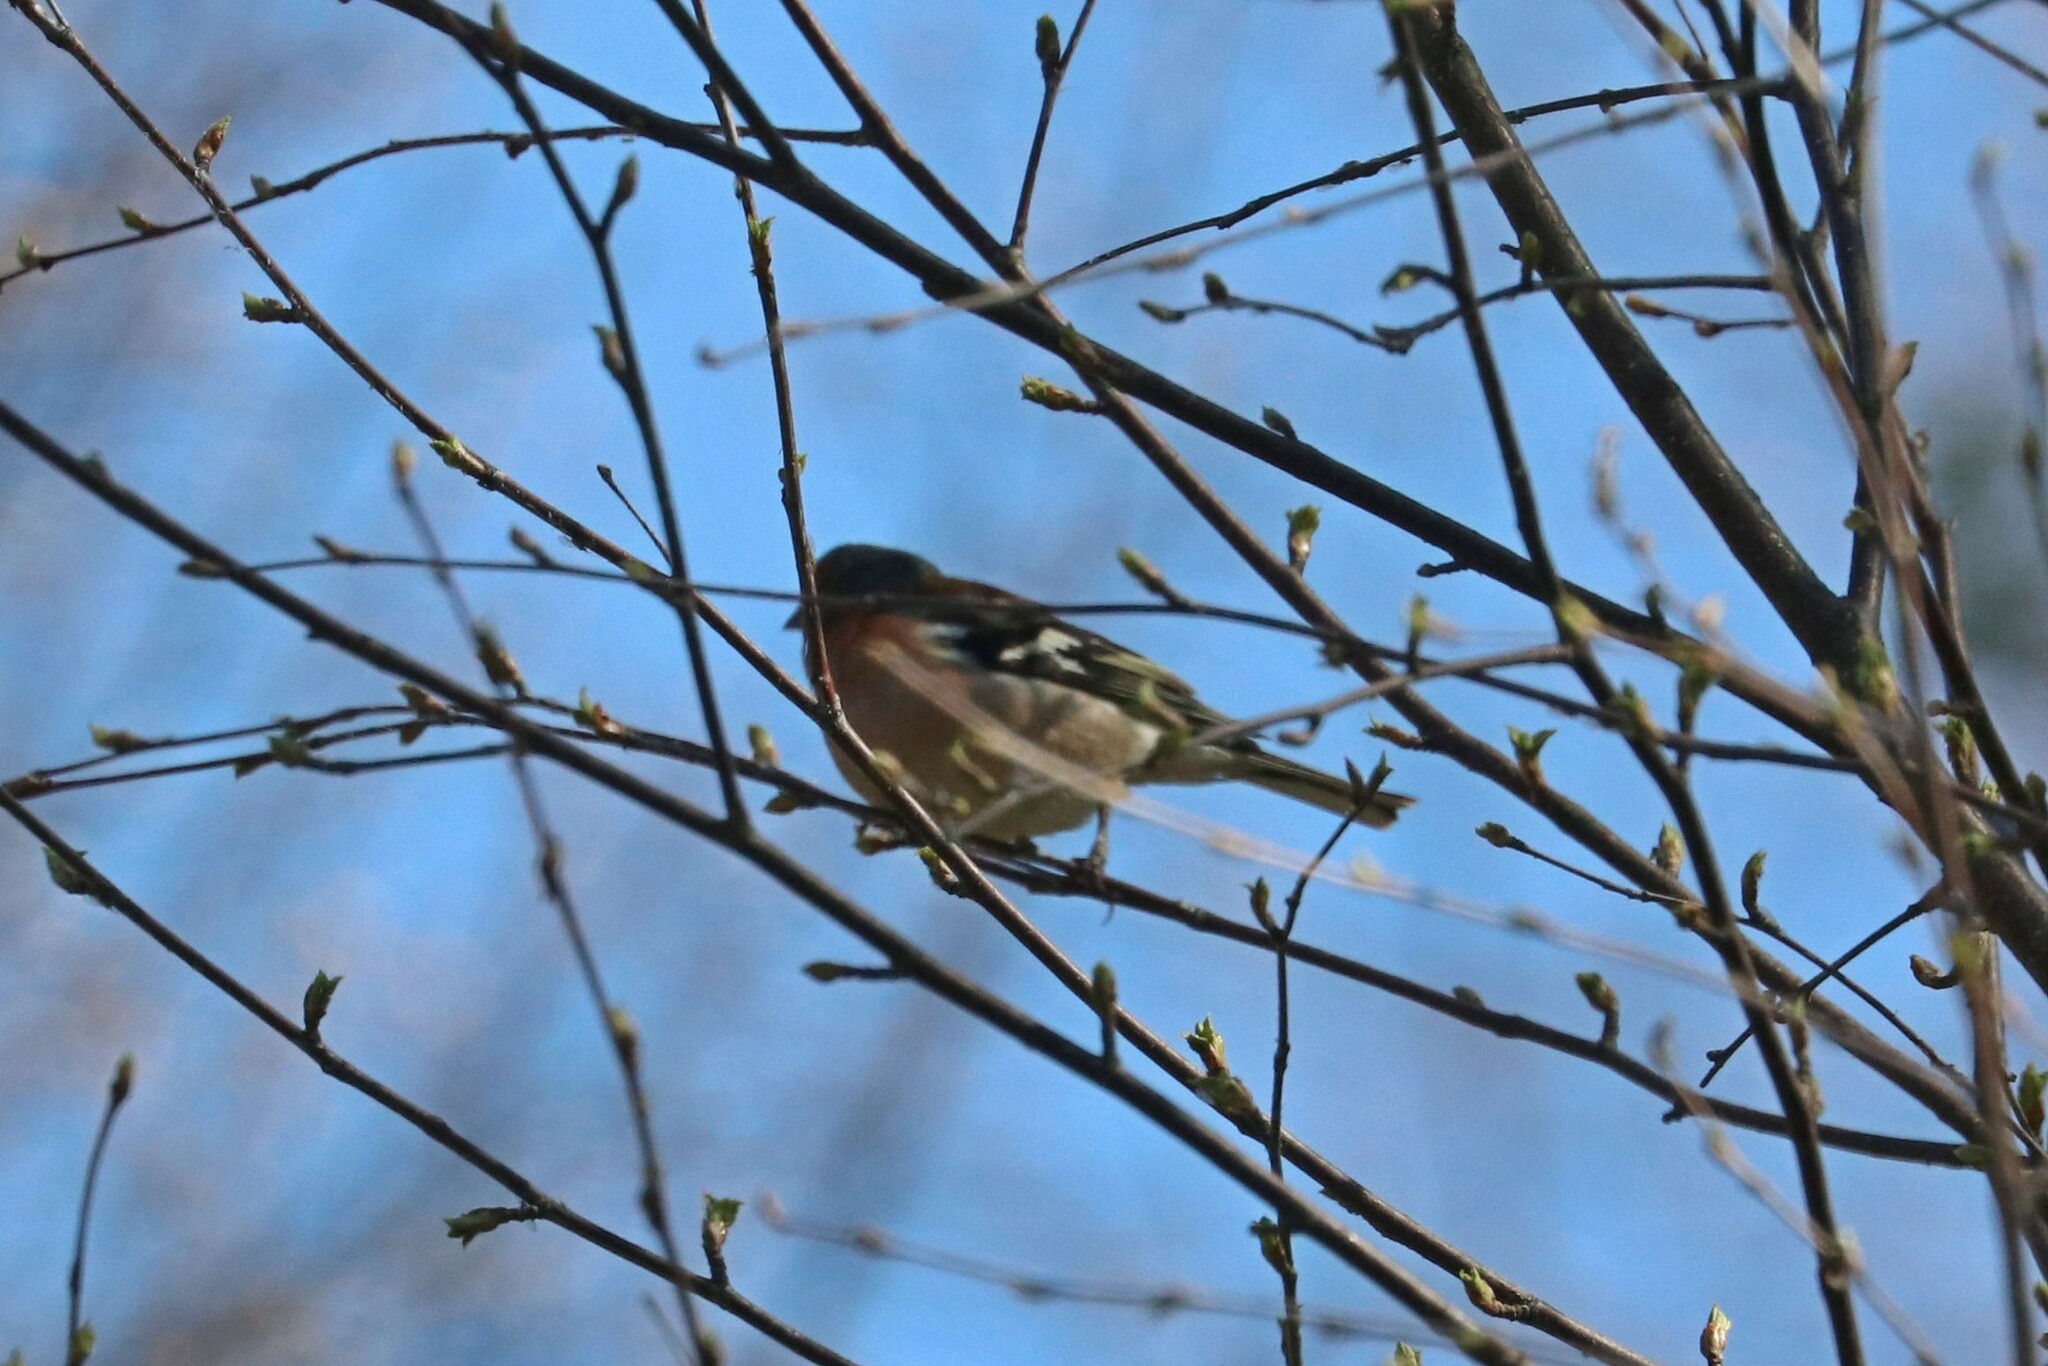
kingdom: Animalia
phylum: Chordata
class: Aves
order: Passeriformes
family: Fringillidae
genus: Fringilla
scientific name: Fringilla coelebs
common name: Common chaffinch
